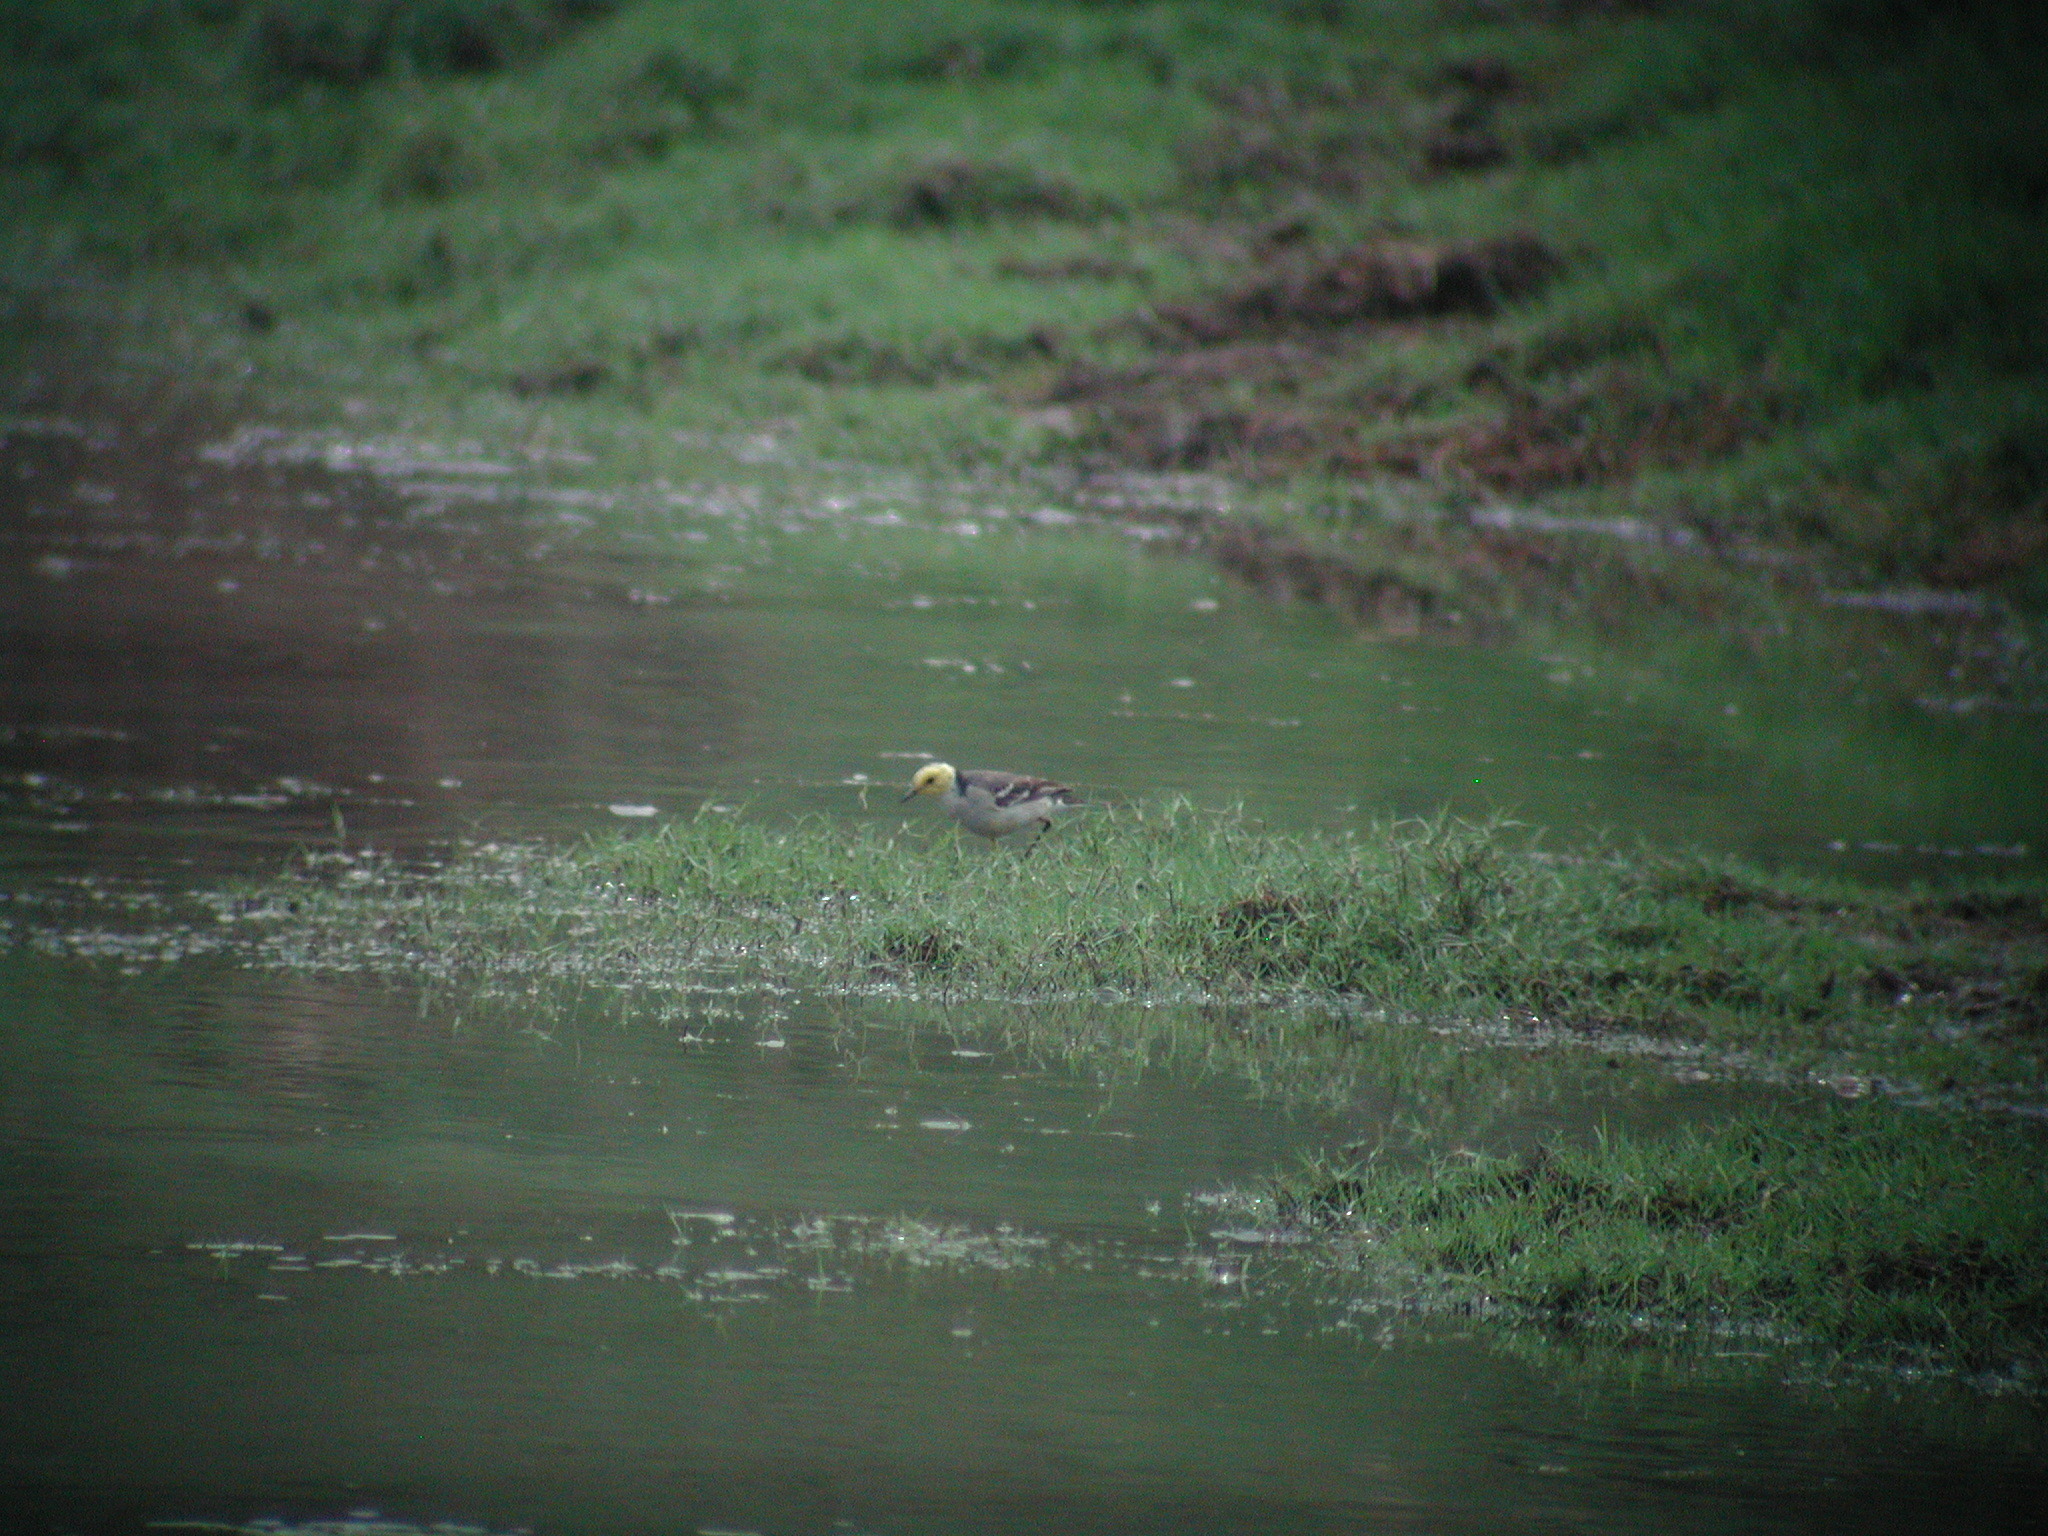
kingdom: Animalia
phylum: Chordata
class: Aves
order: Passeriformes
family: Motacillidae
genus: Motacilla
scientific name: Motacilla citreola
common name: Citrine wagtail
